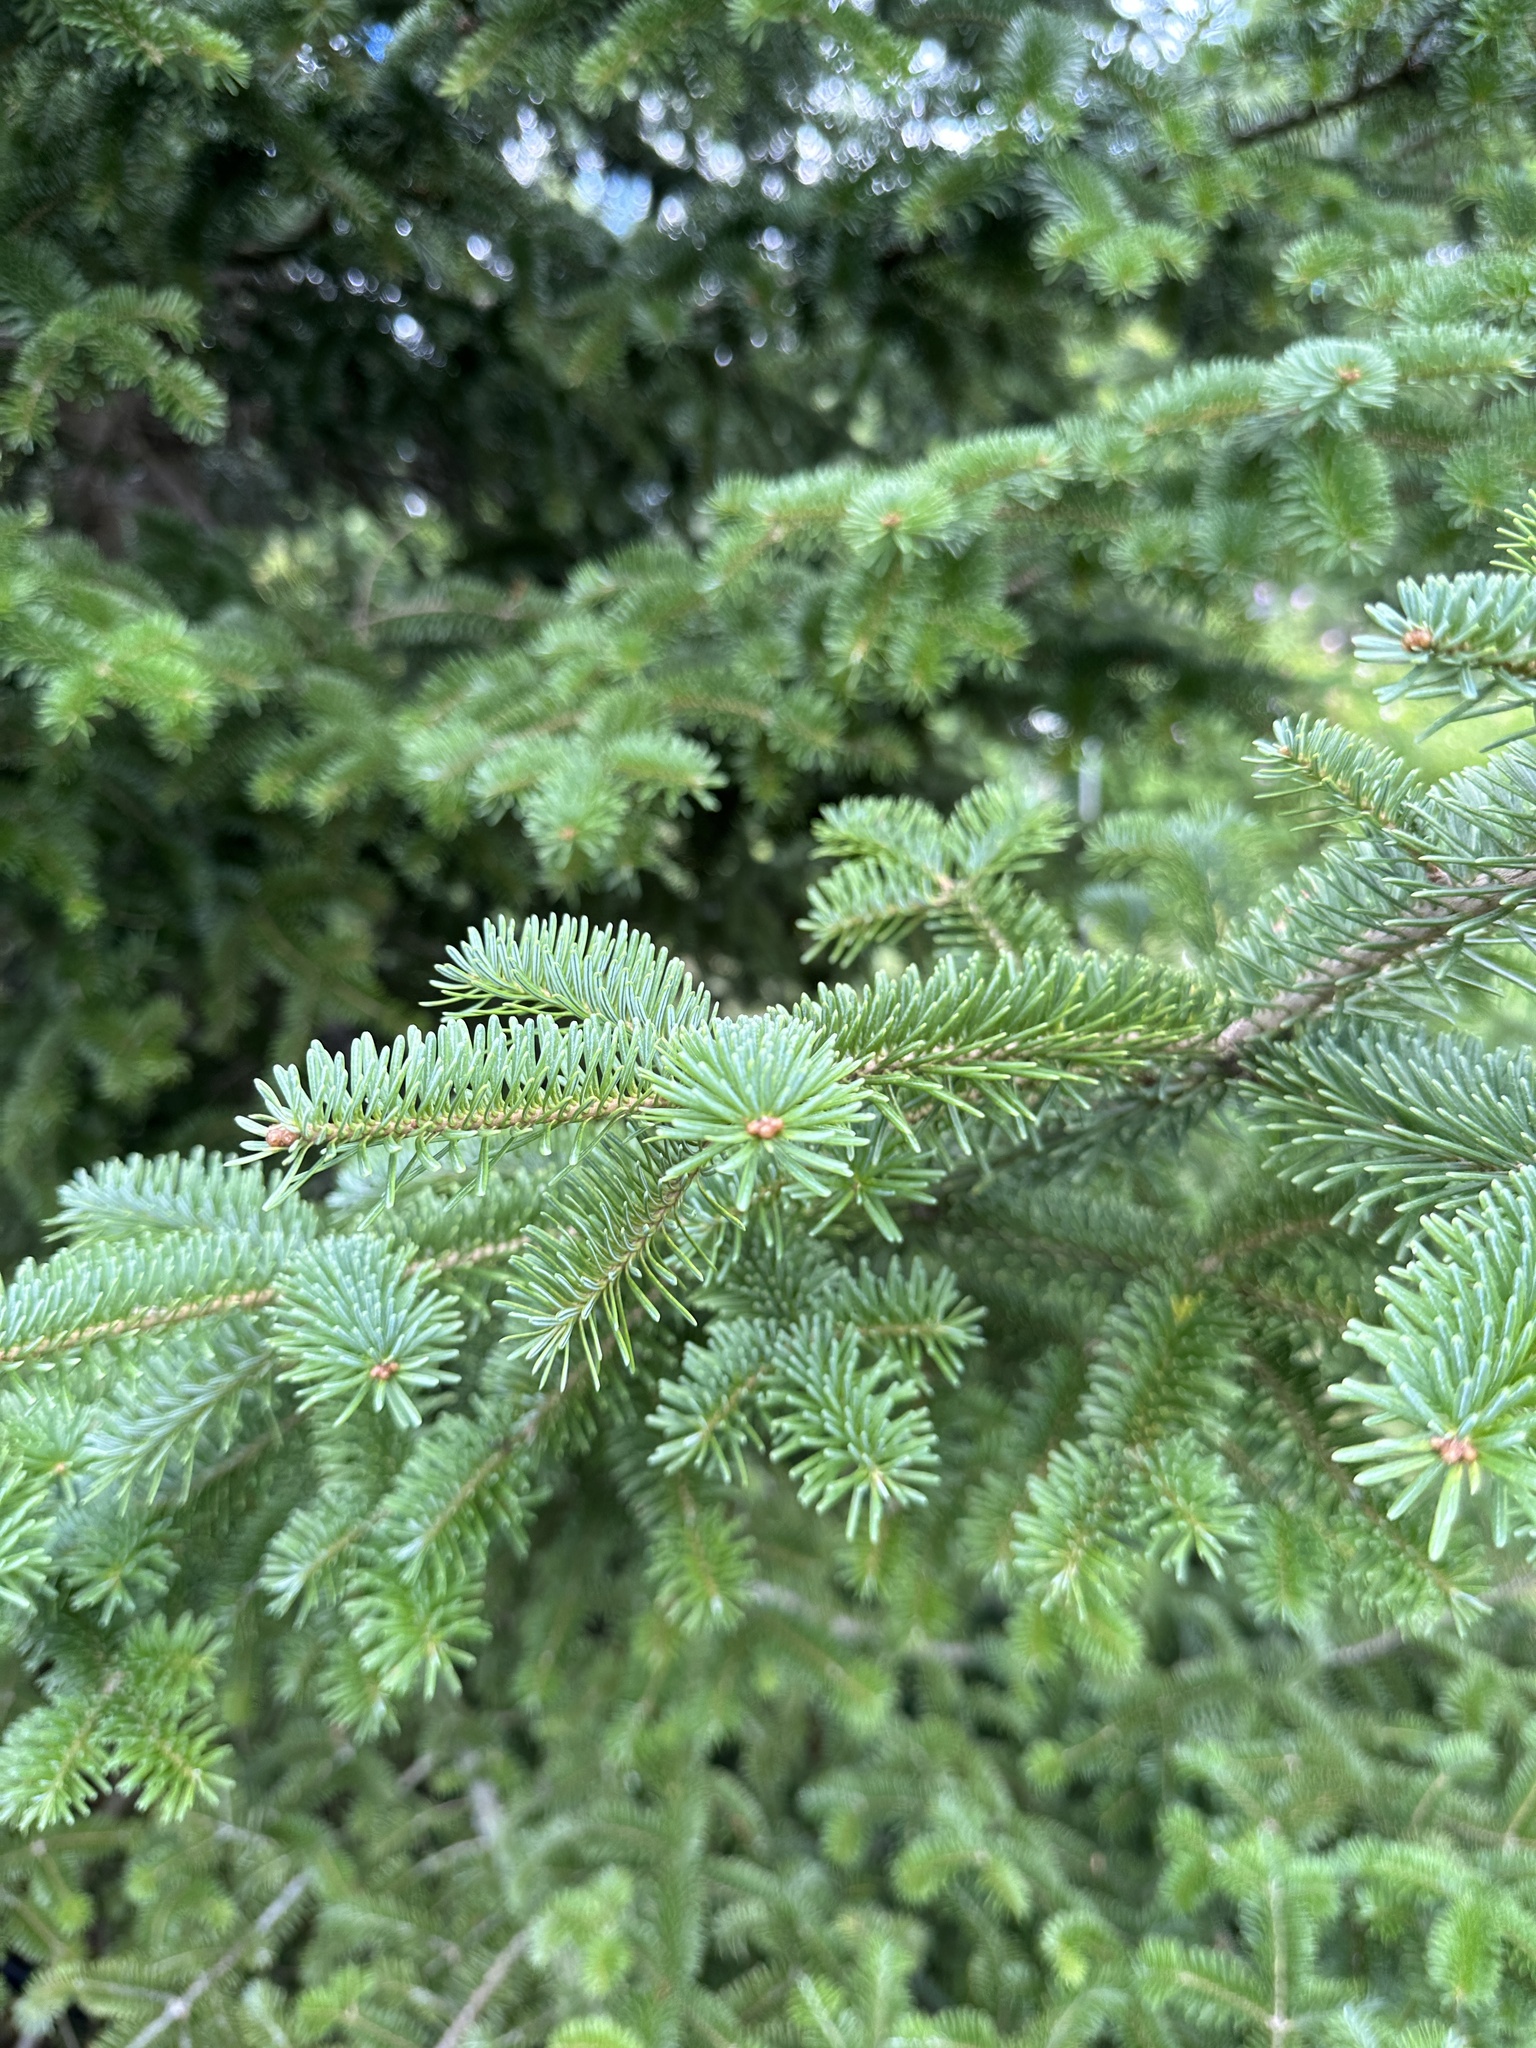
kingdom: Plantae
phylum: Tracheophyta
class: Pinopsida
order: Pinales
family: Pinaceae
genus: Abies
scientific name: Abies balsamea
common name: Balsam fir
